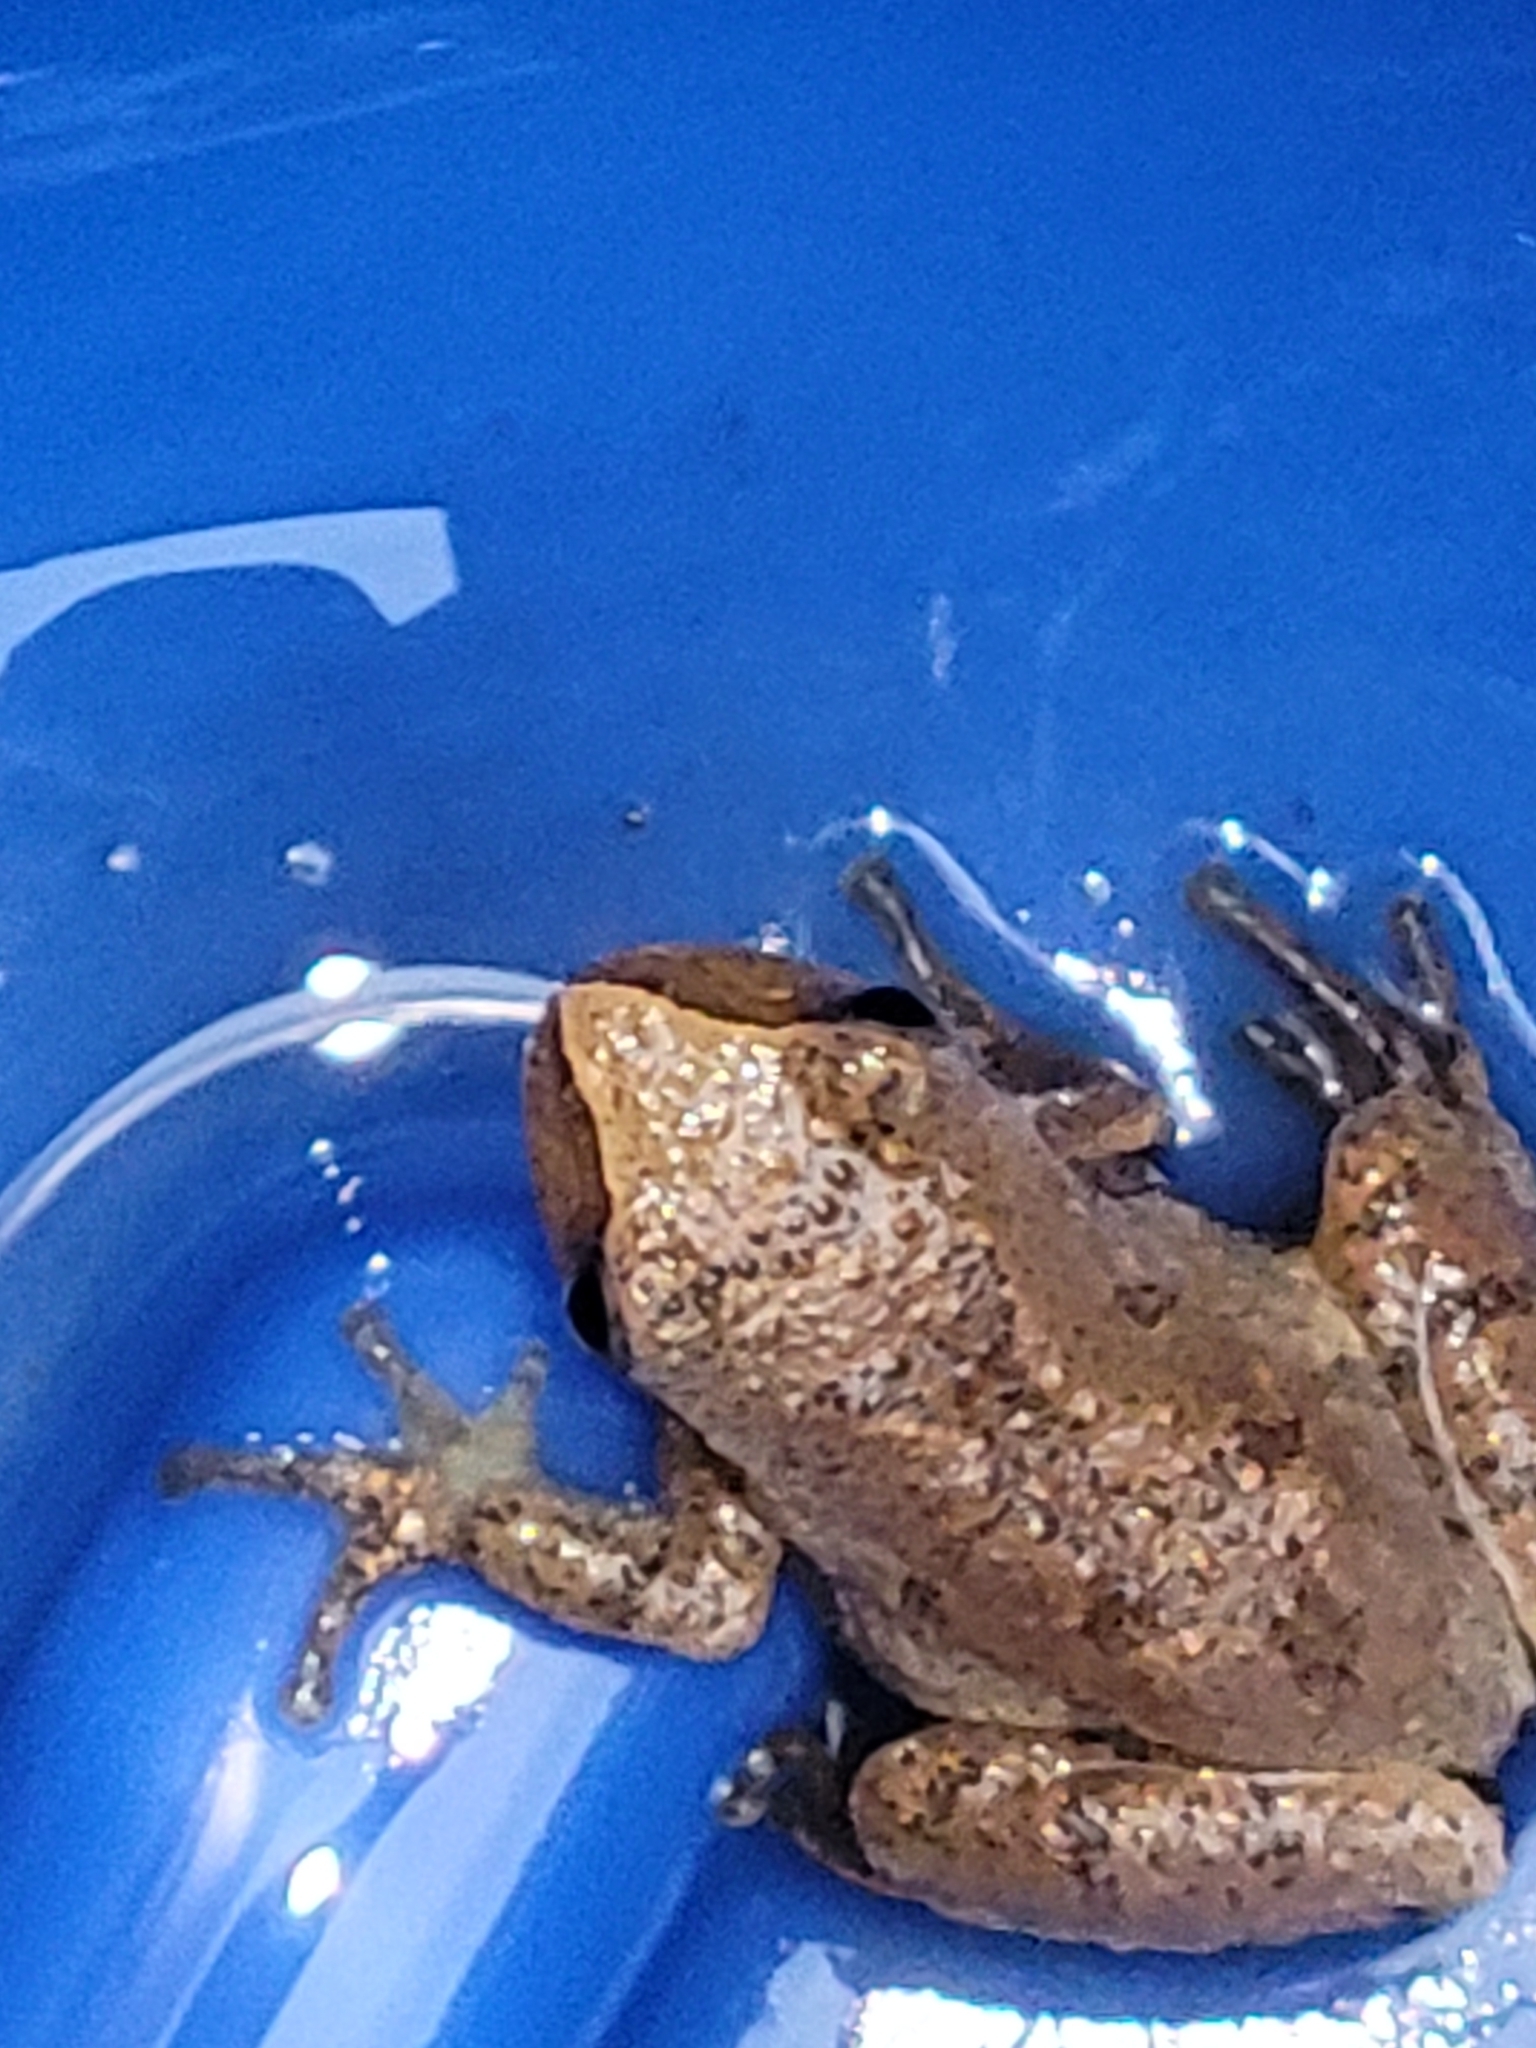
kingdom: Animalia
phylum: Chordata
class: Amphibia
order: Anura
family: Hylidae
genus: Pseudacris
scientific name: Pseudacris crucifer
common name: Spring peeper
